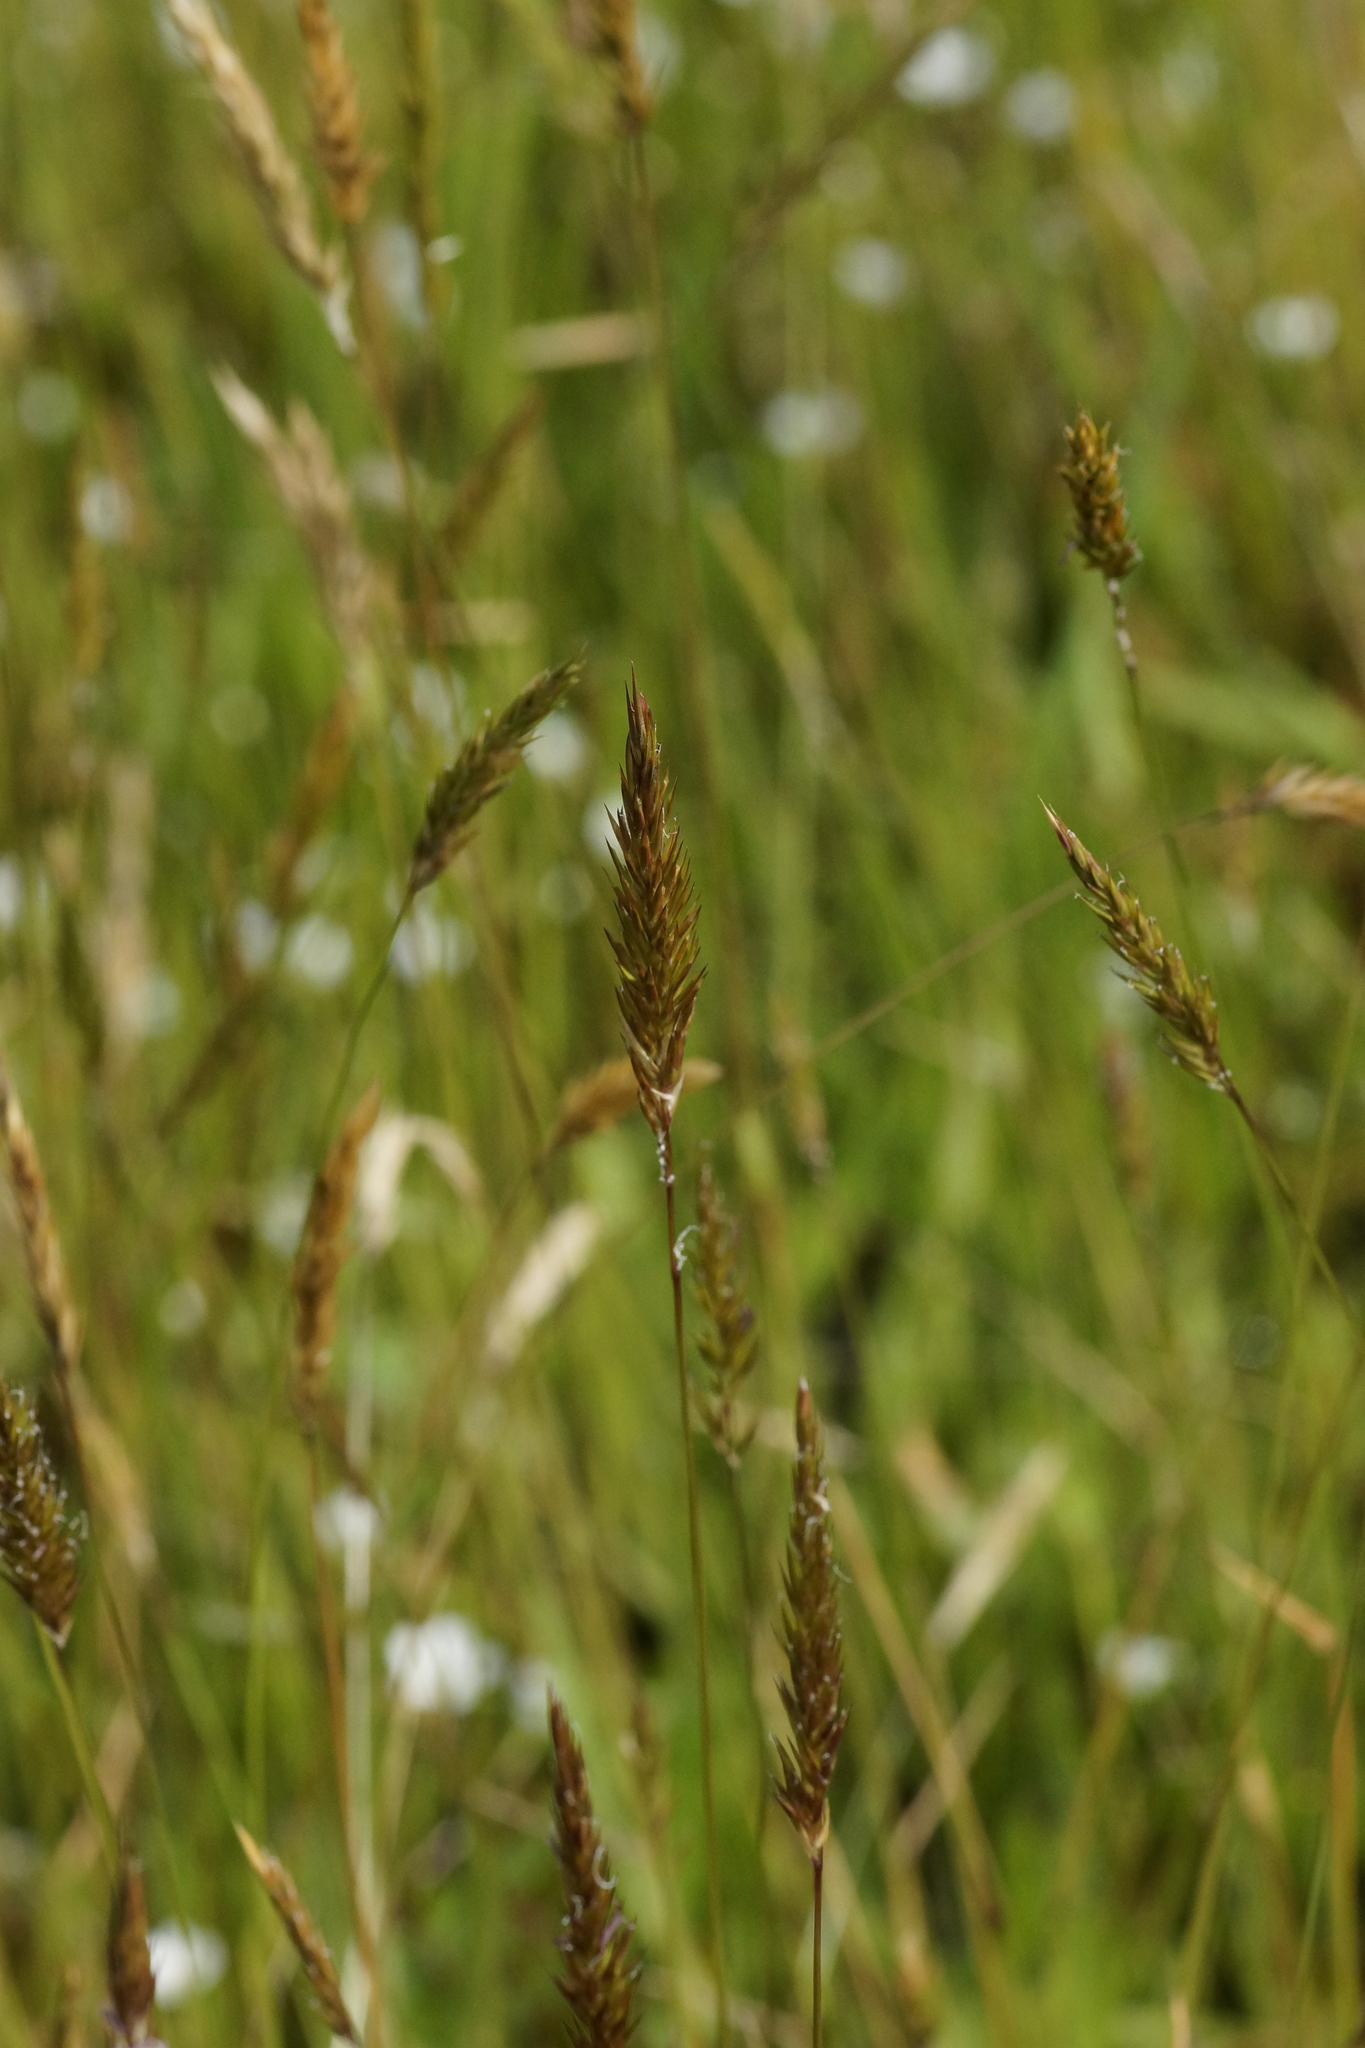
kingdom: Plantae
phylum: Tracheophyta
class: Liliopsida
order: Poales
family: Poaceae
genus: Anthoxanthum
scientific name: Anthoxanthum odoratum
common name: Sweet vernalgrass
